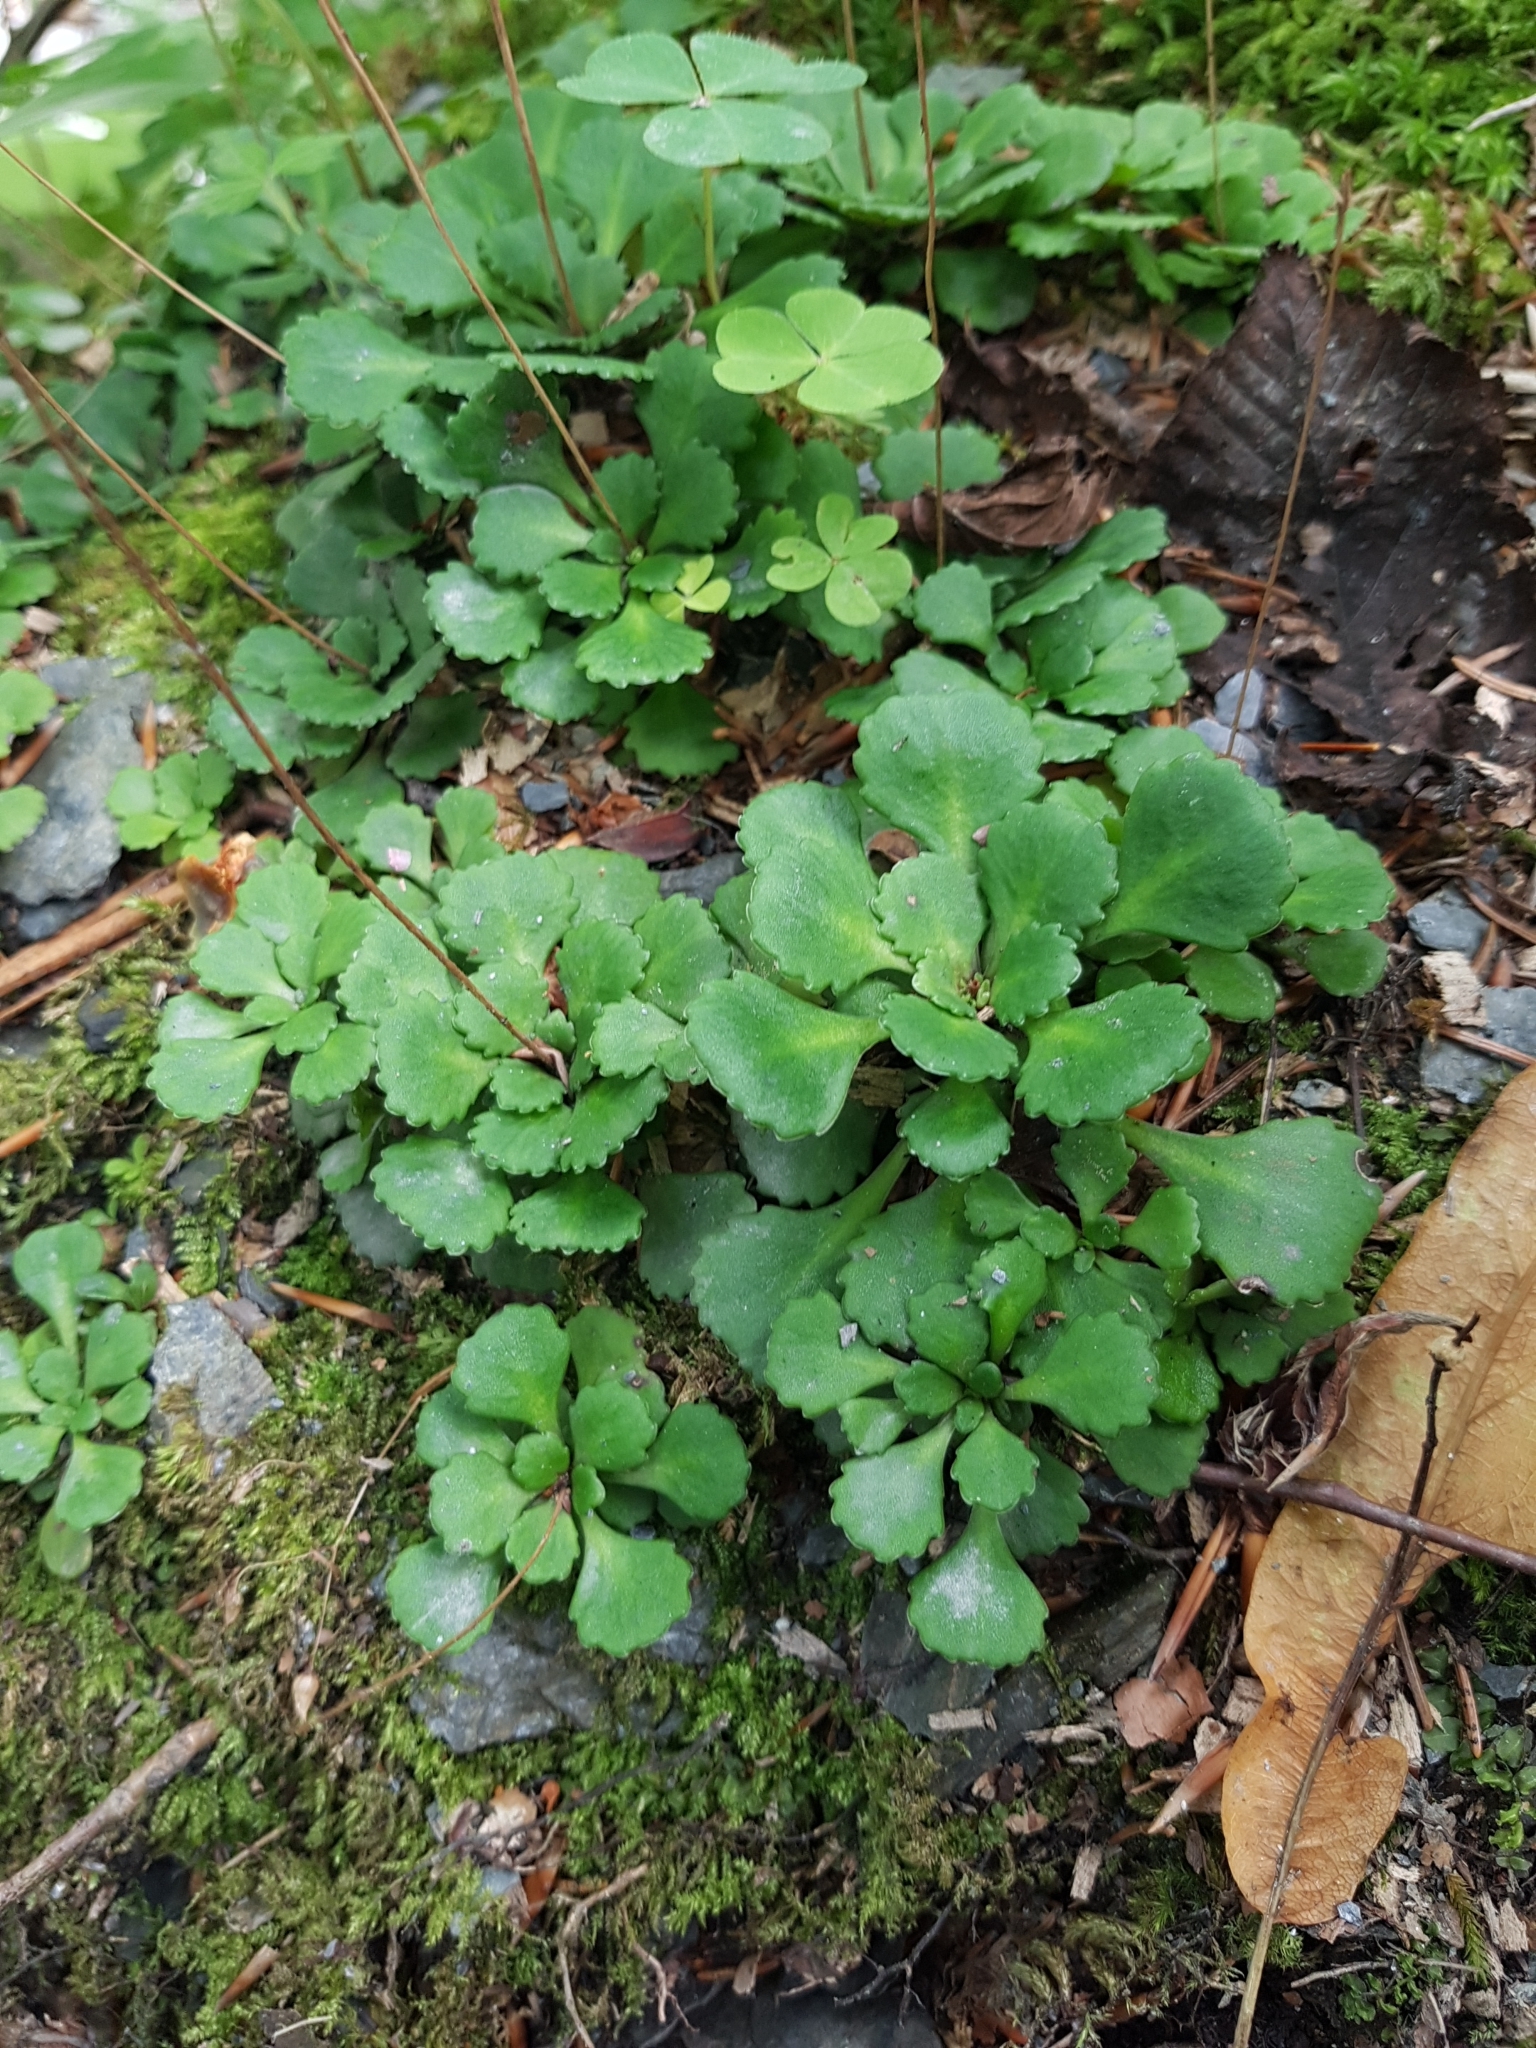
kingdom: Plantae
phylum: Tracheophyta
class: Magnoliopsida
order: Saxifragales
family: Saxifragaceae
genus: Saxifraga
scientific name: Saxifraga cuneifolia
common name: Lesser londonpride
